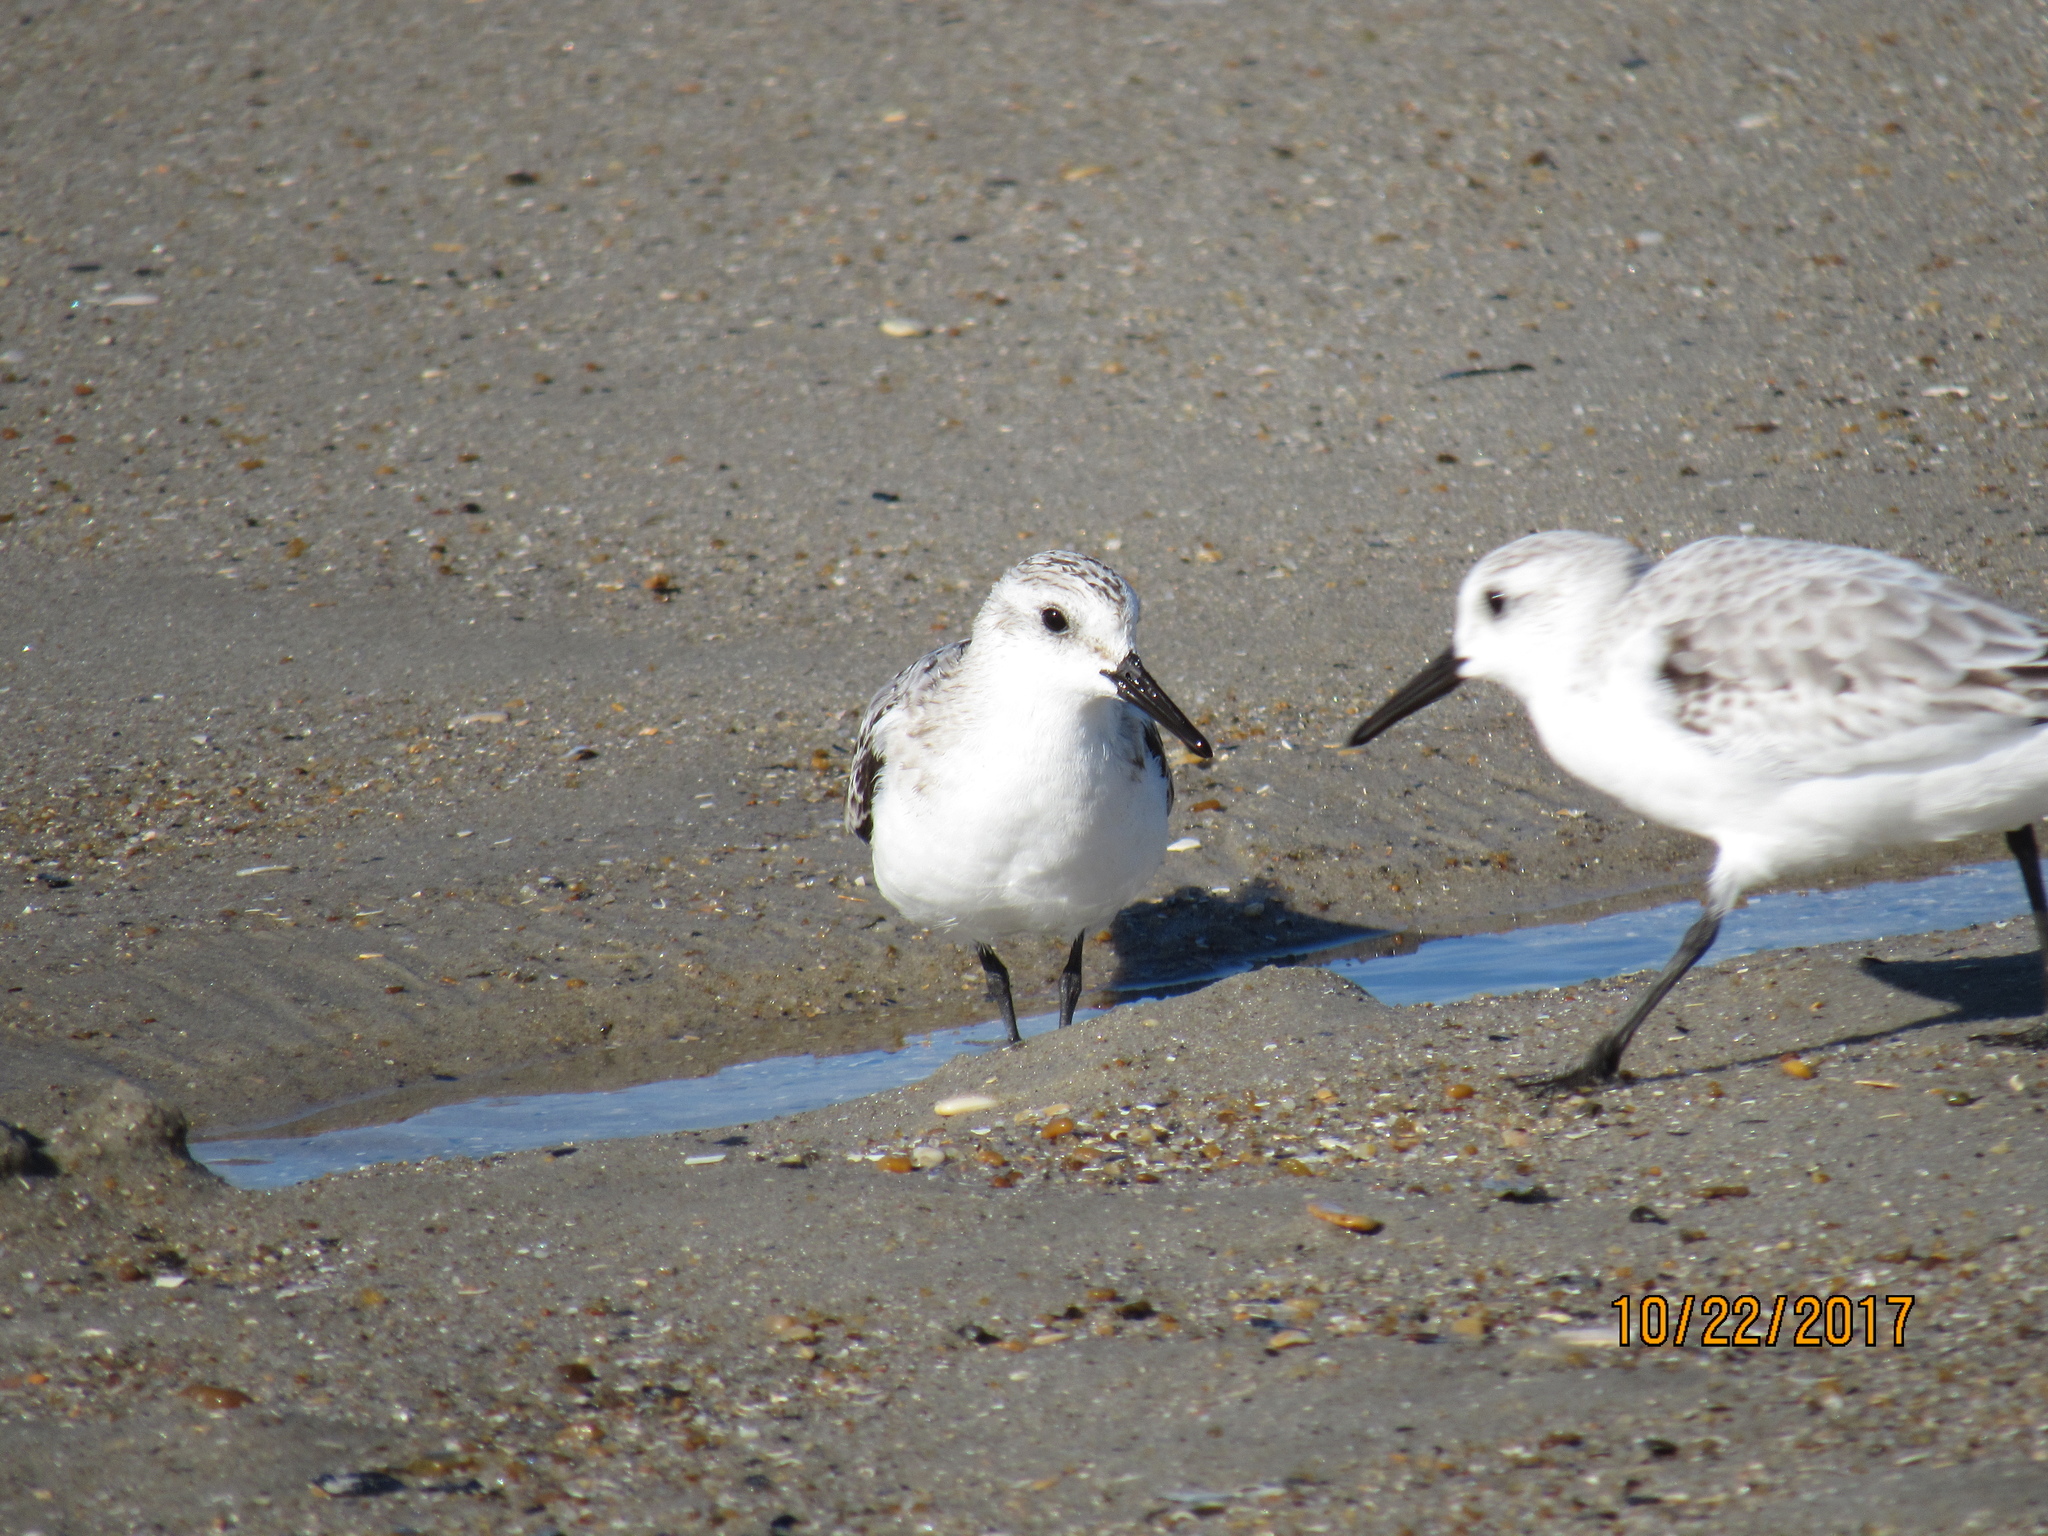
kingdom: Animalia
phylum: Chordata
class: Aves
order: Charadriiformes
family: Scolopacidae
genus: Calidris
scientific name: Calidris alba
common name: Sanderling
